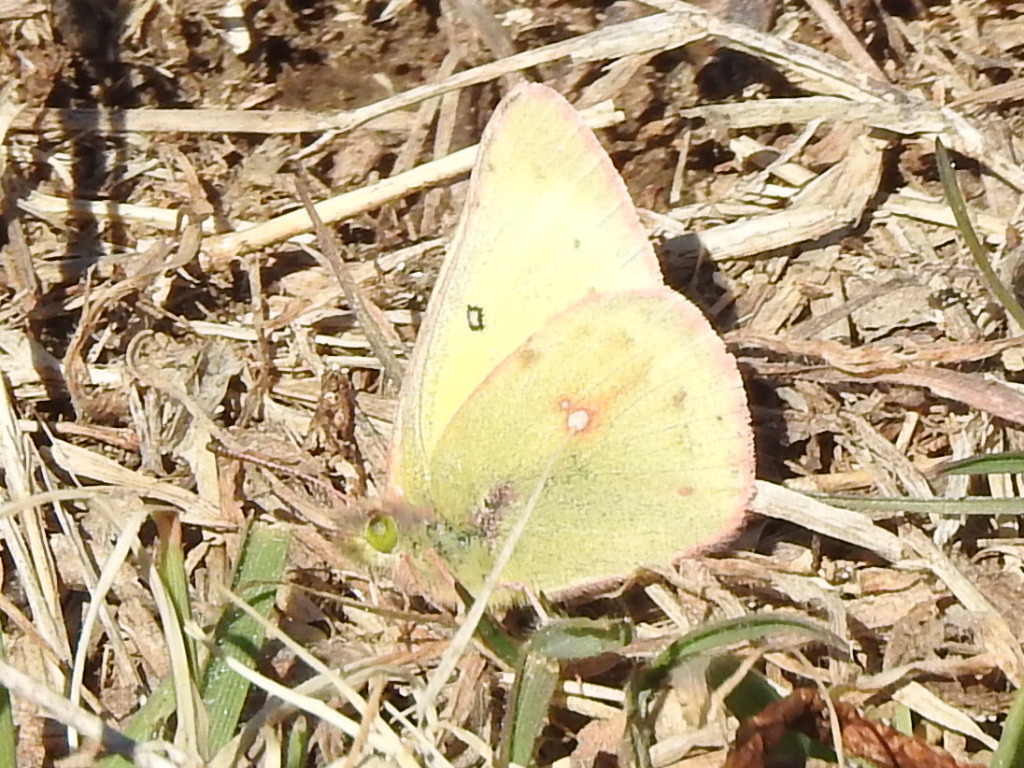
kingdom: Animalia
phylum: Arthropoda
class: Insecta
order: Lepidoptera
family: Pieridae
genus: Colias
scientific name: Colias eurytheme
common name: Alfalfa butterfly
